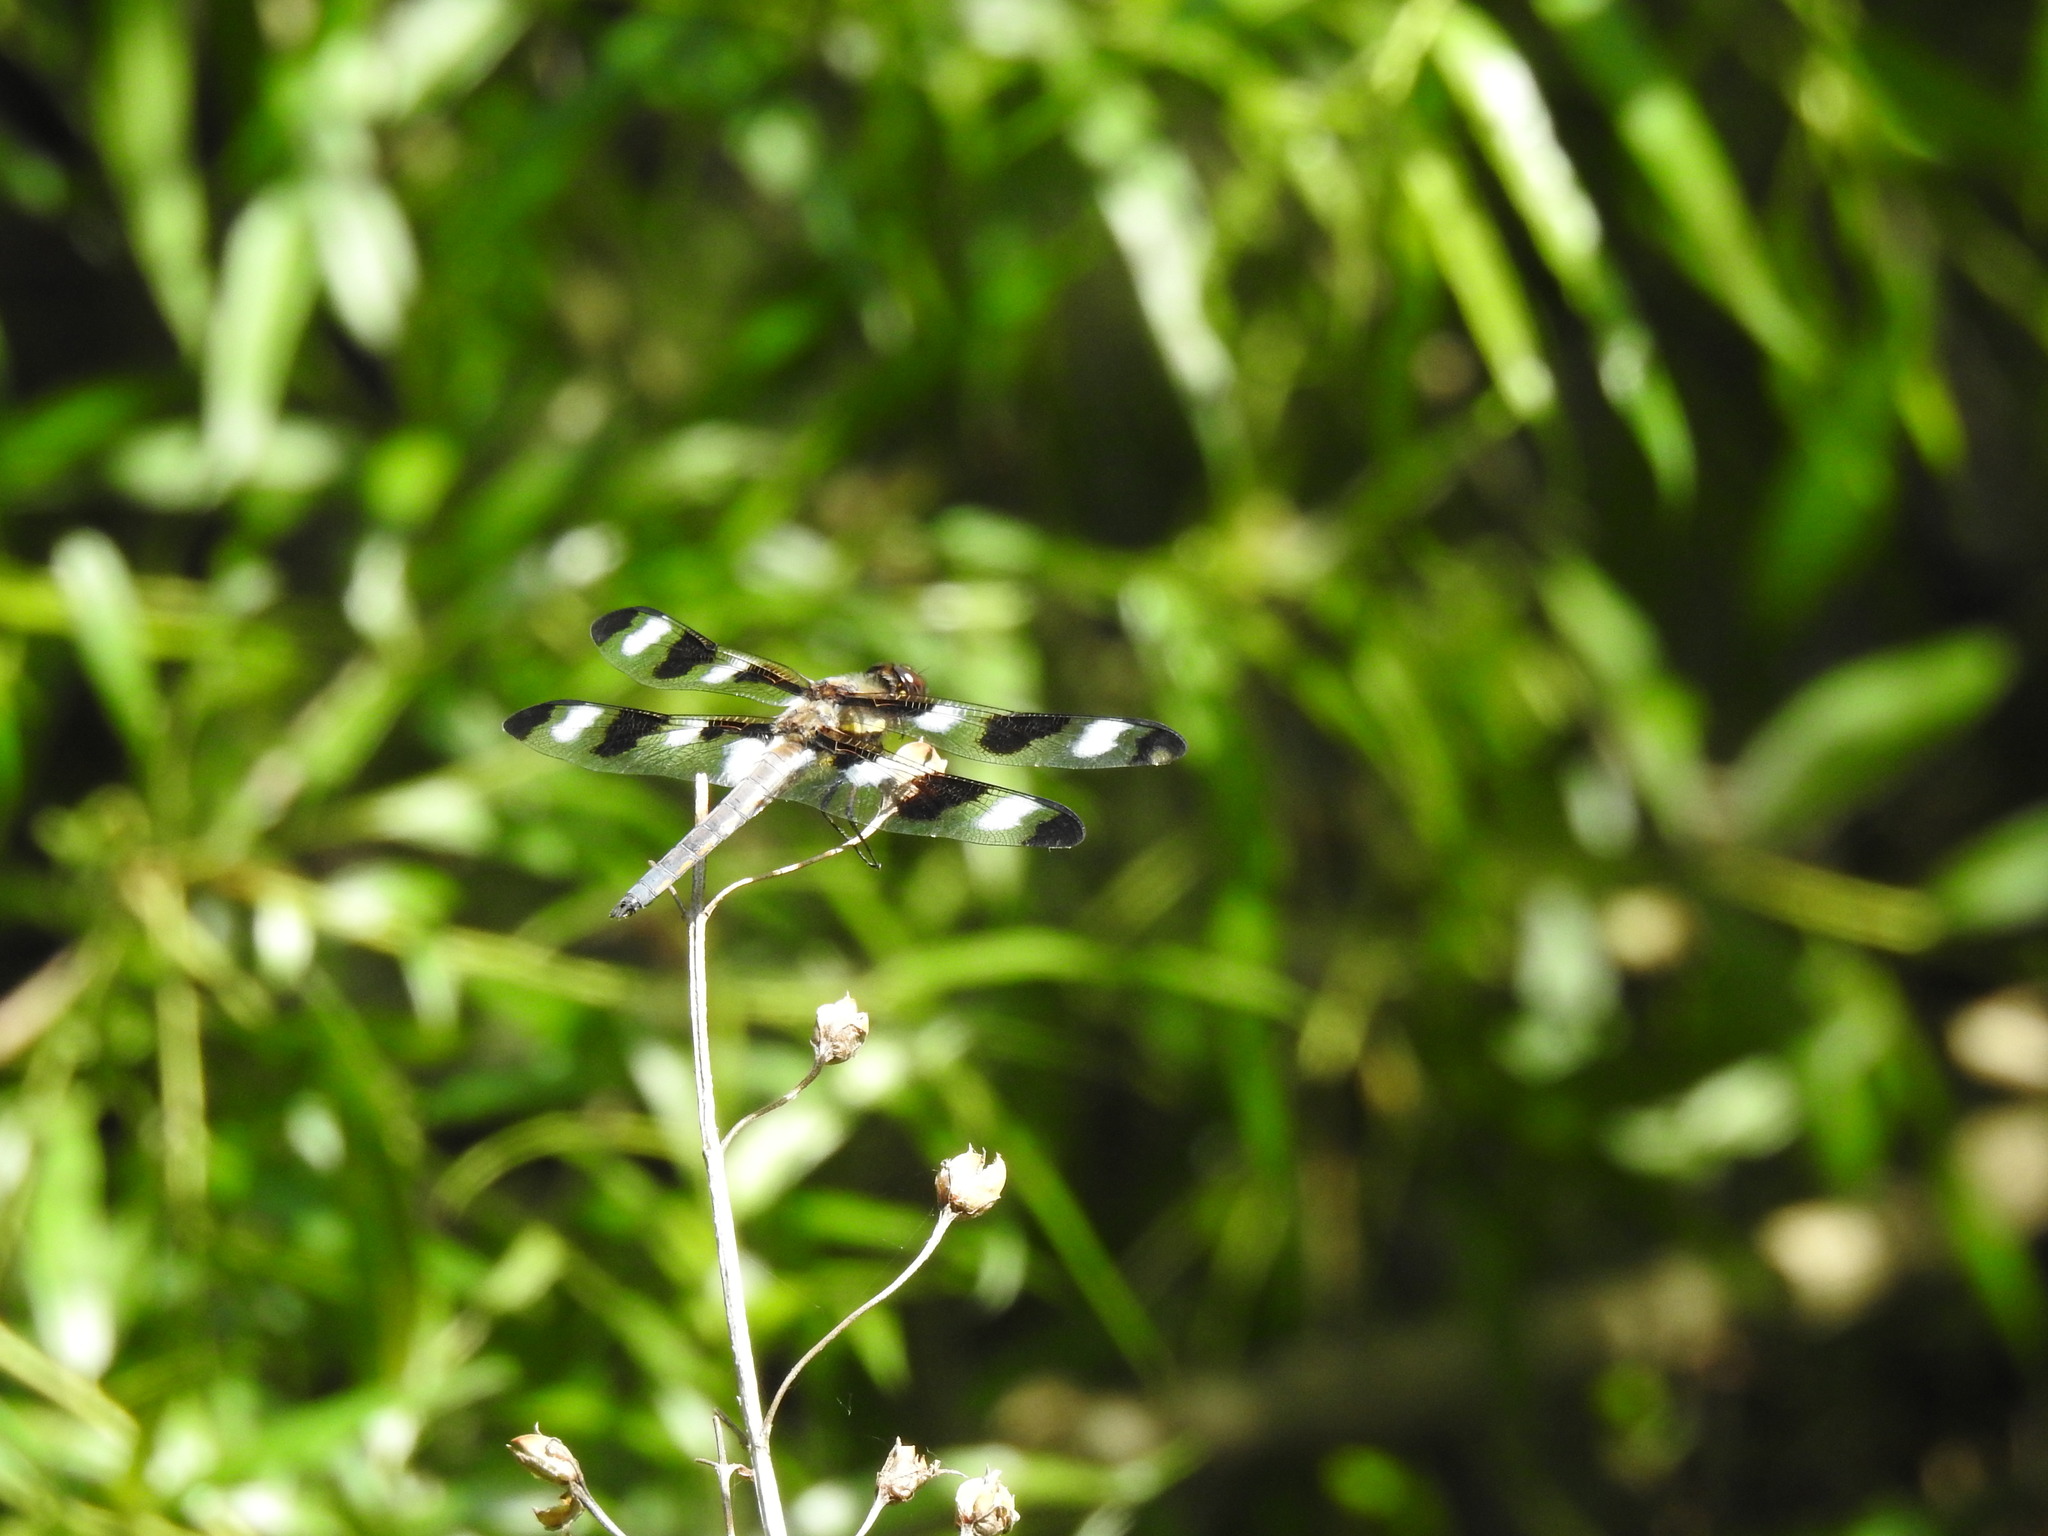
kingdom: Animalia
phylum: Arthropoda
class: Insecta
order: Odonata
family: Libellulidae
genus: Libellula
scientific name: Libellula pulchella
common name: Twelve-spotted skimmer
